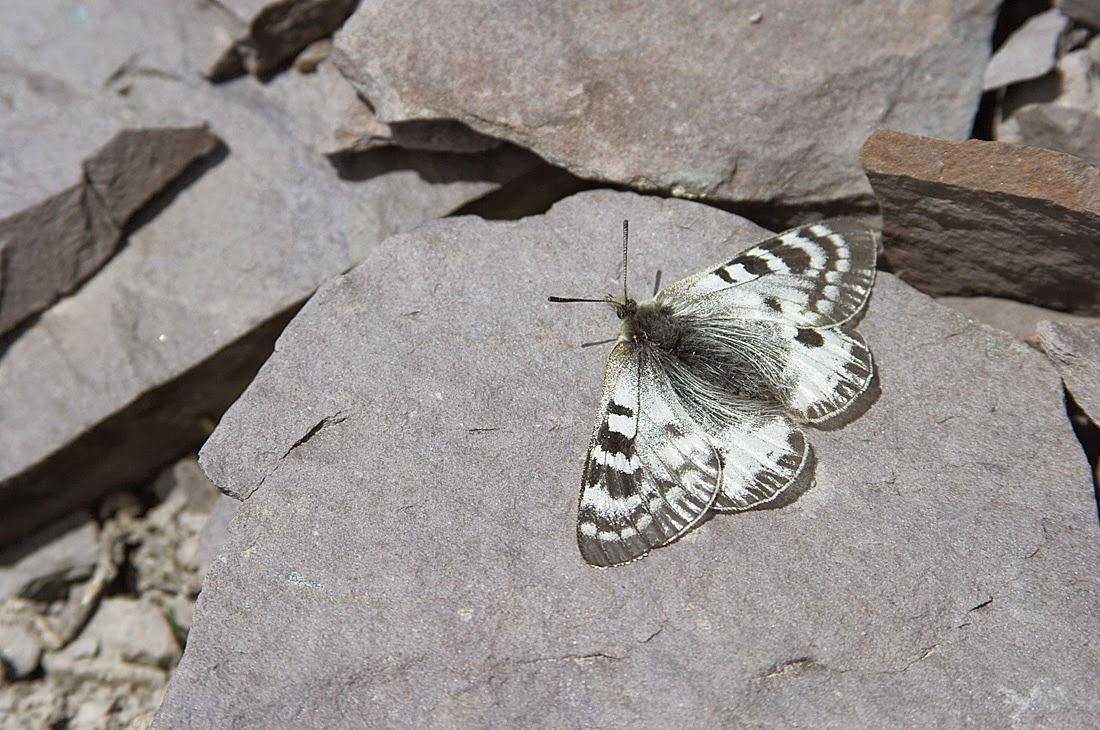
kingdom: Animalia
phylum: Arthropoda
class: Insecta
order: Lepidoptera
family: Papilionidae
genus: Parnassius
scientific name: Parnassius patricius
